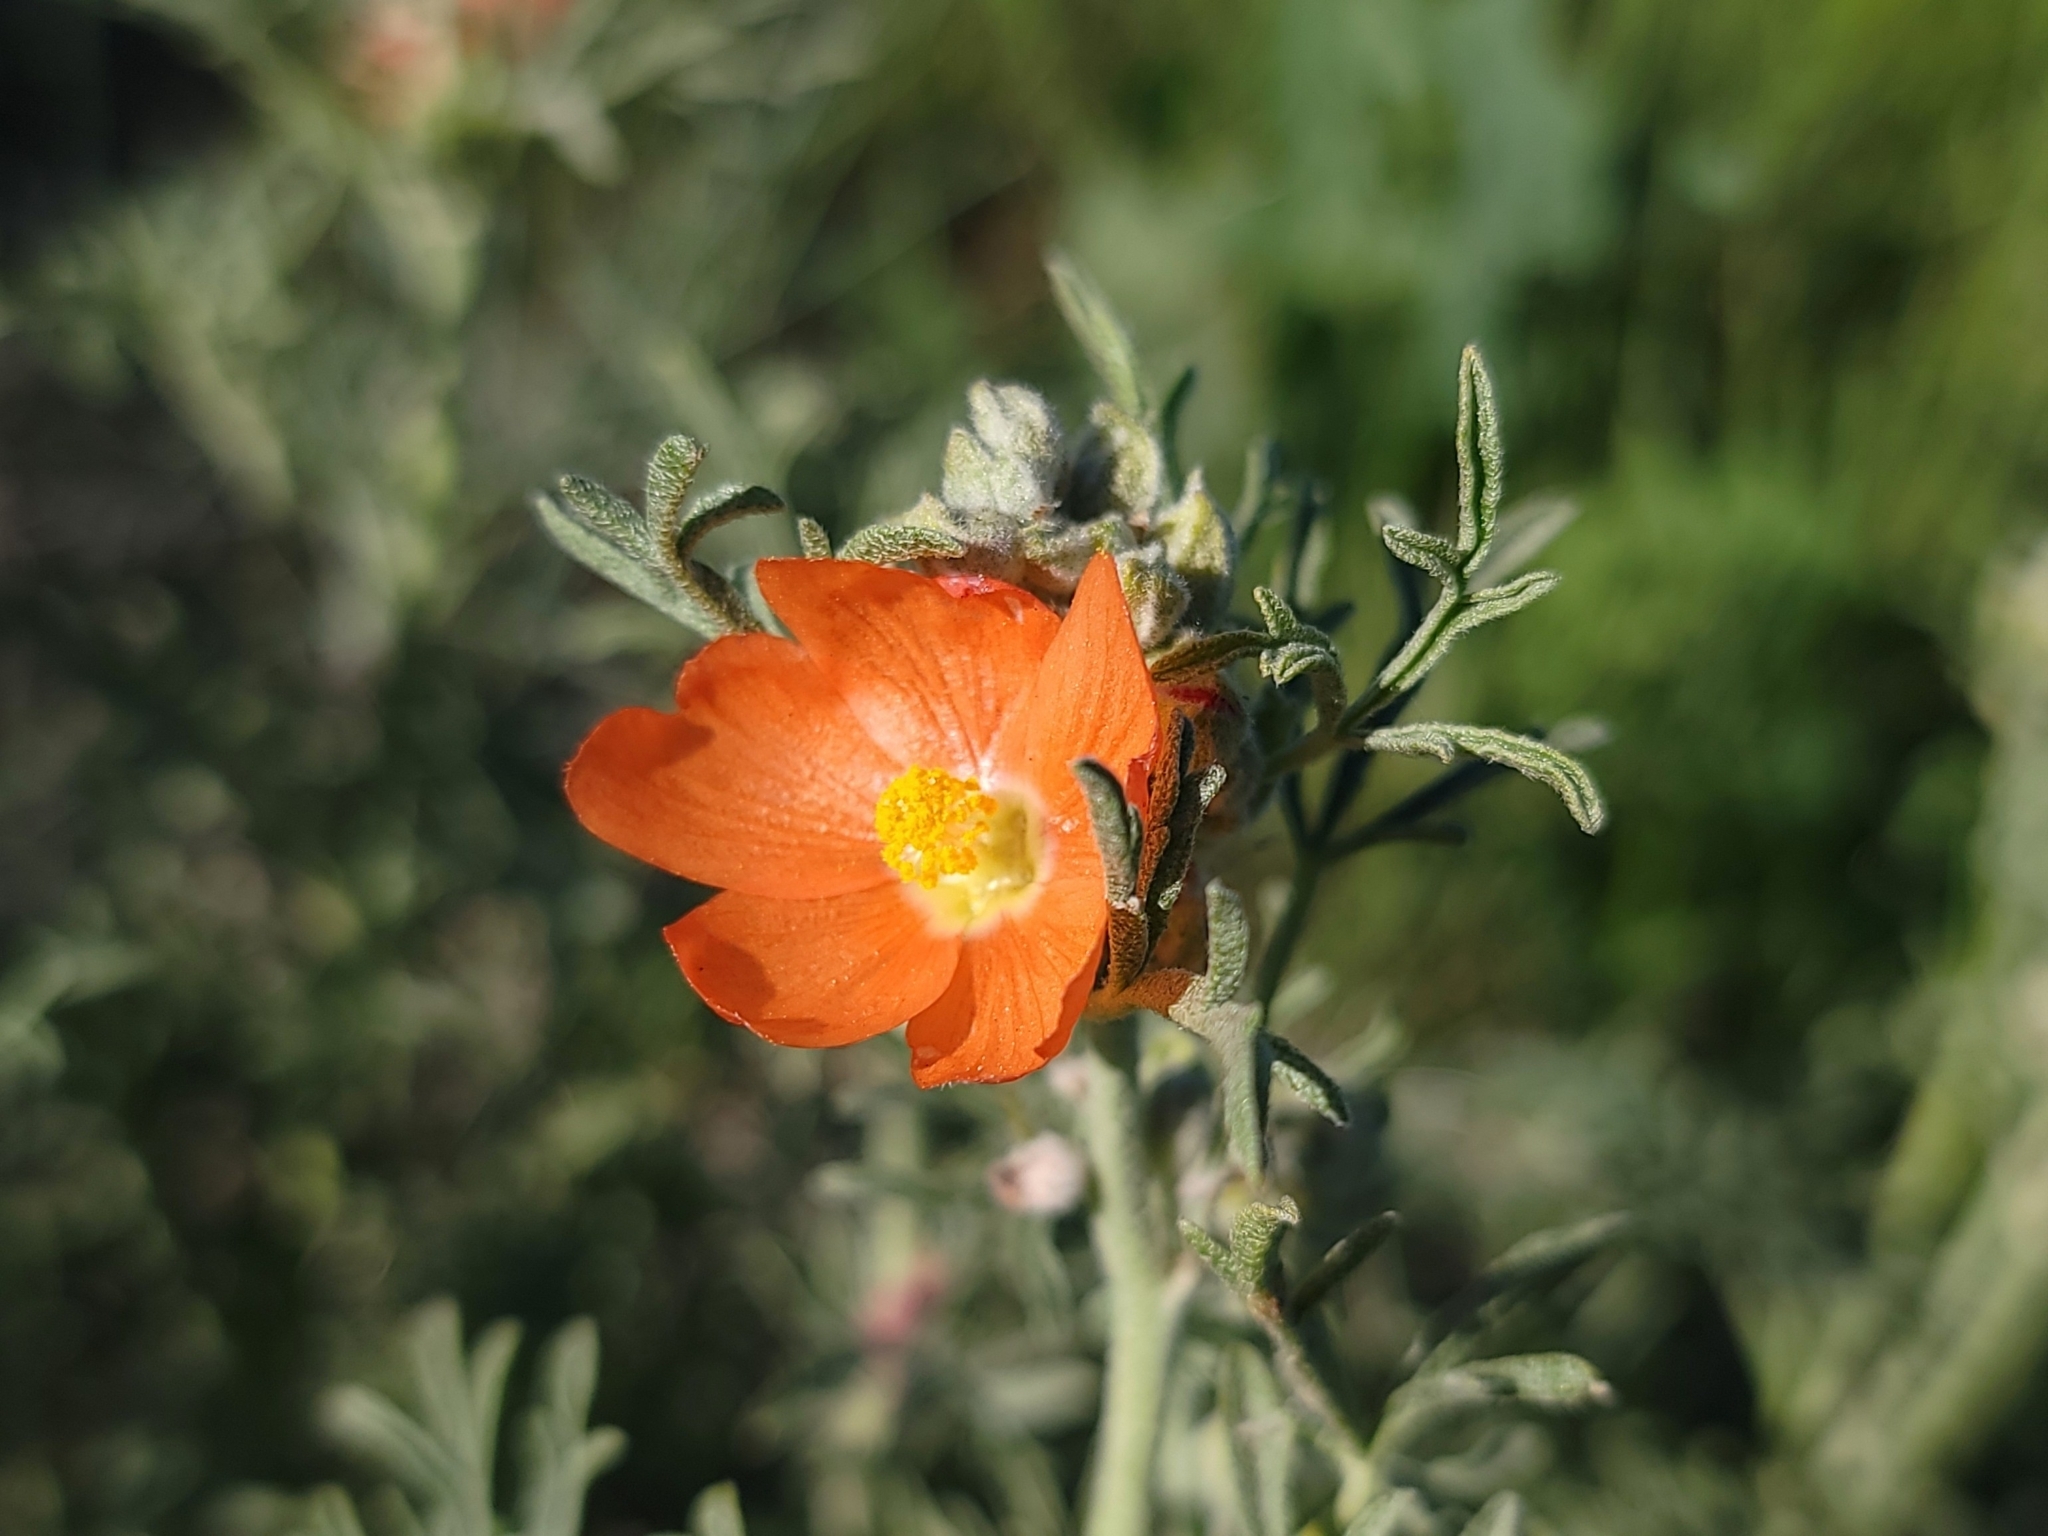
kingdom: Plantae
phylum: Tracheophyta
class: Magnoliopsida
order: Malvales
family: Malvaceae
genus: Sphaeralcea
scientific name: Sphaeralcea coccinea
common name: Moss-rose
